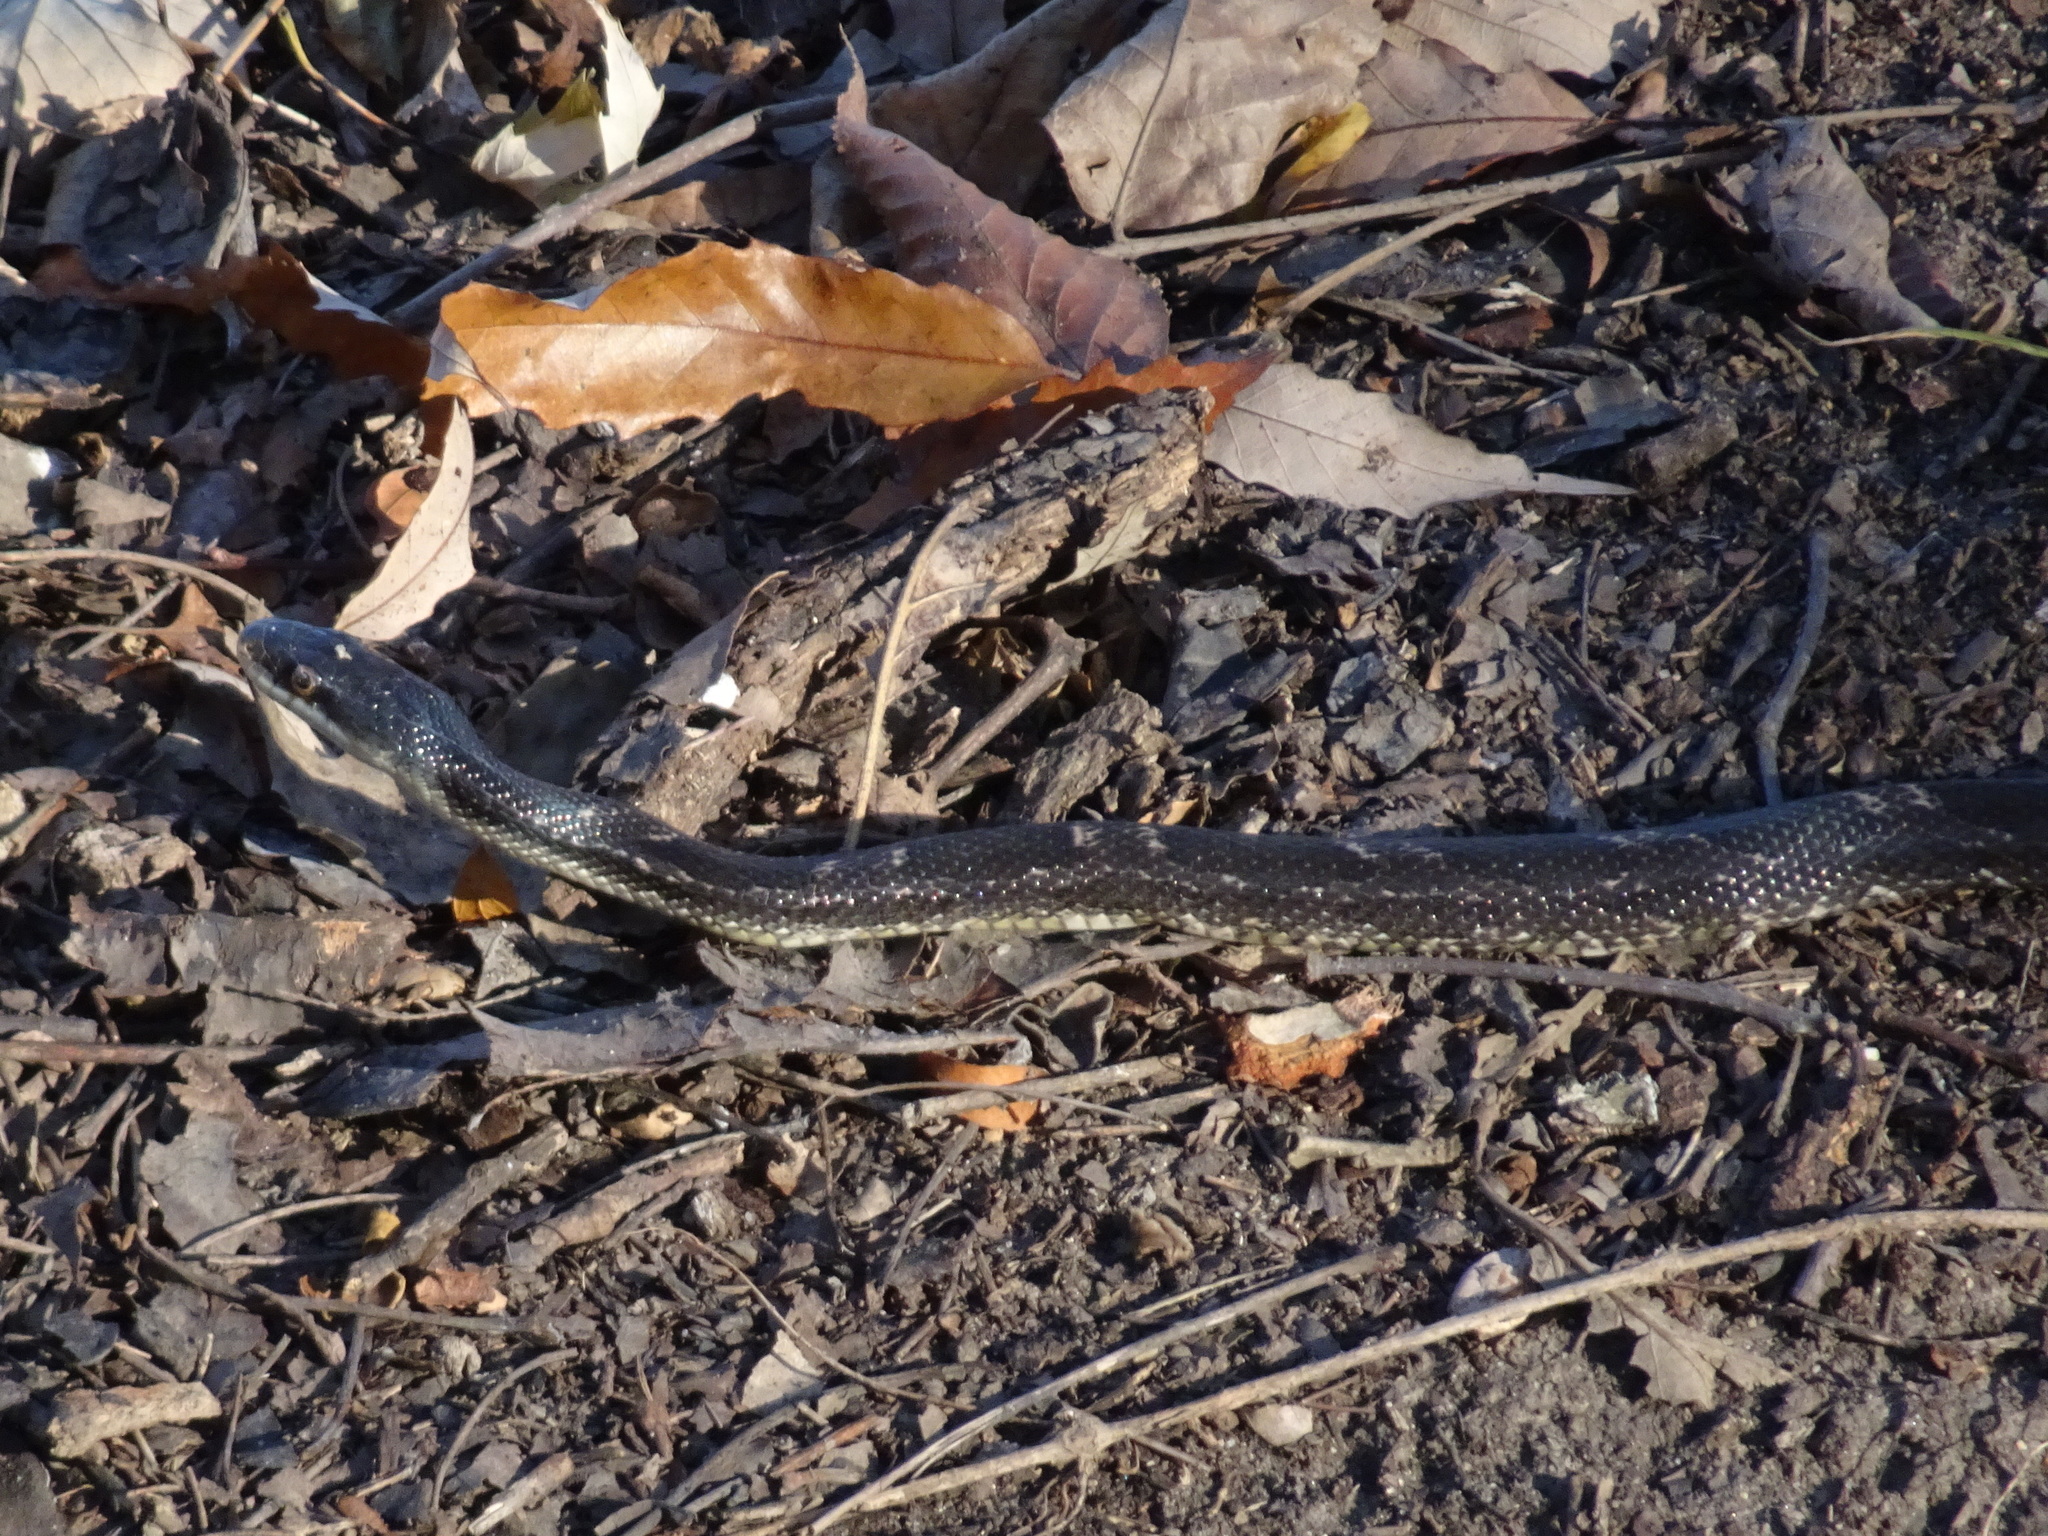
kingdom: Animalia
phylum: Chordata
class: Squamata
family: Colubridae
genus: Pantherophis
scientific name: Pantherophis obsoletus
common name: Black rat snake
